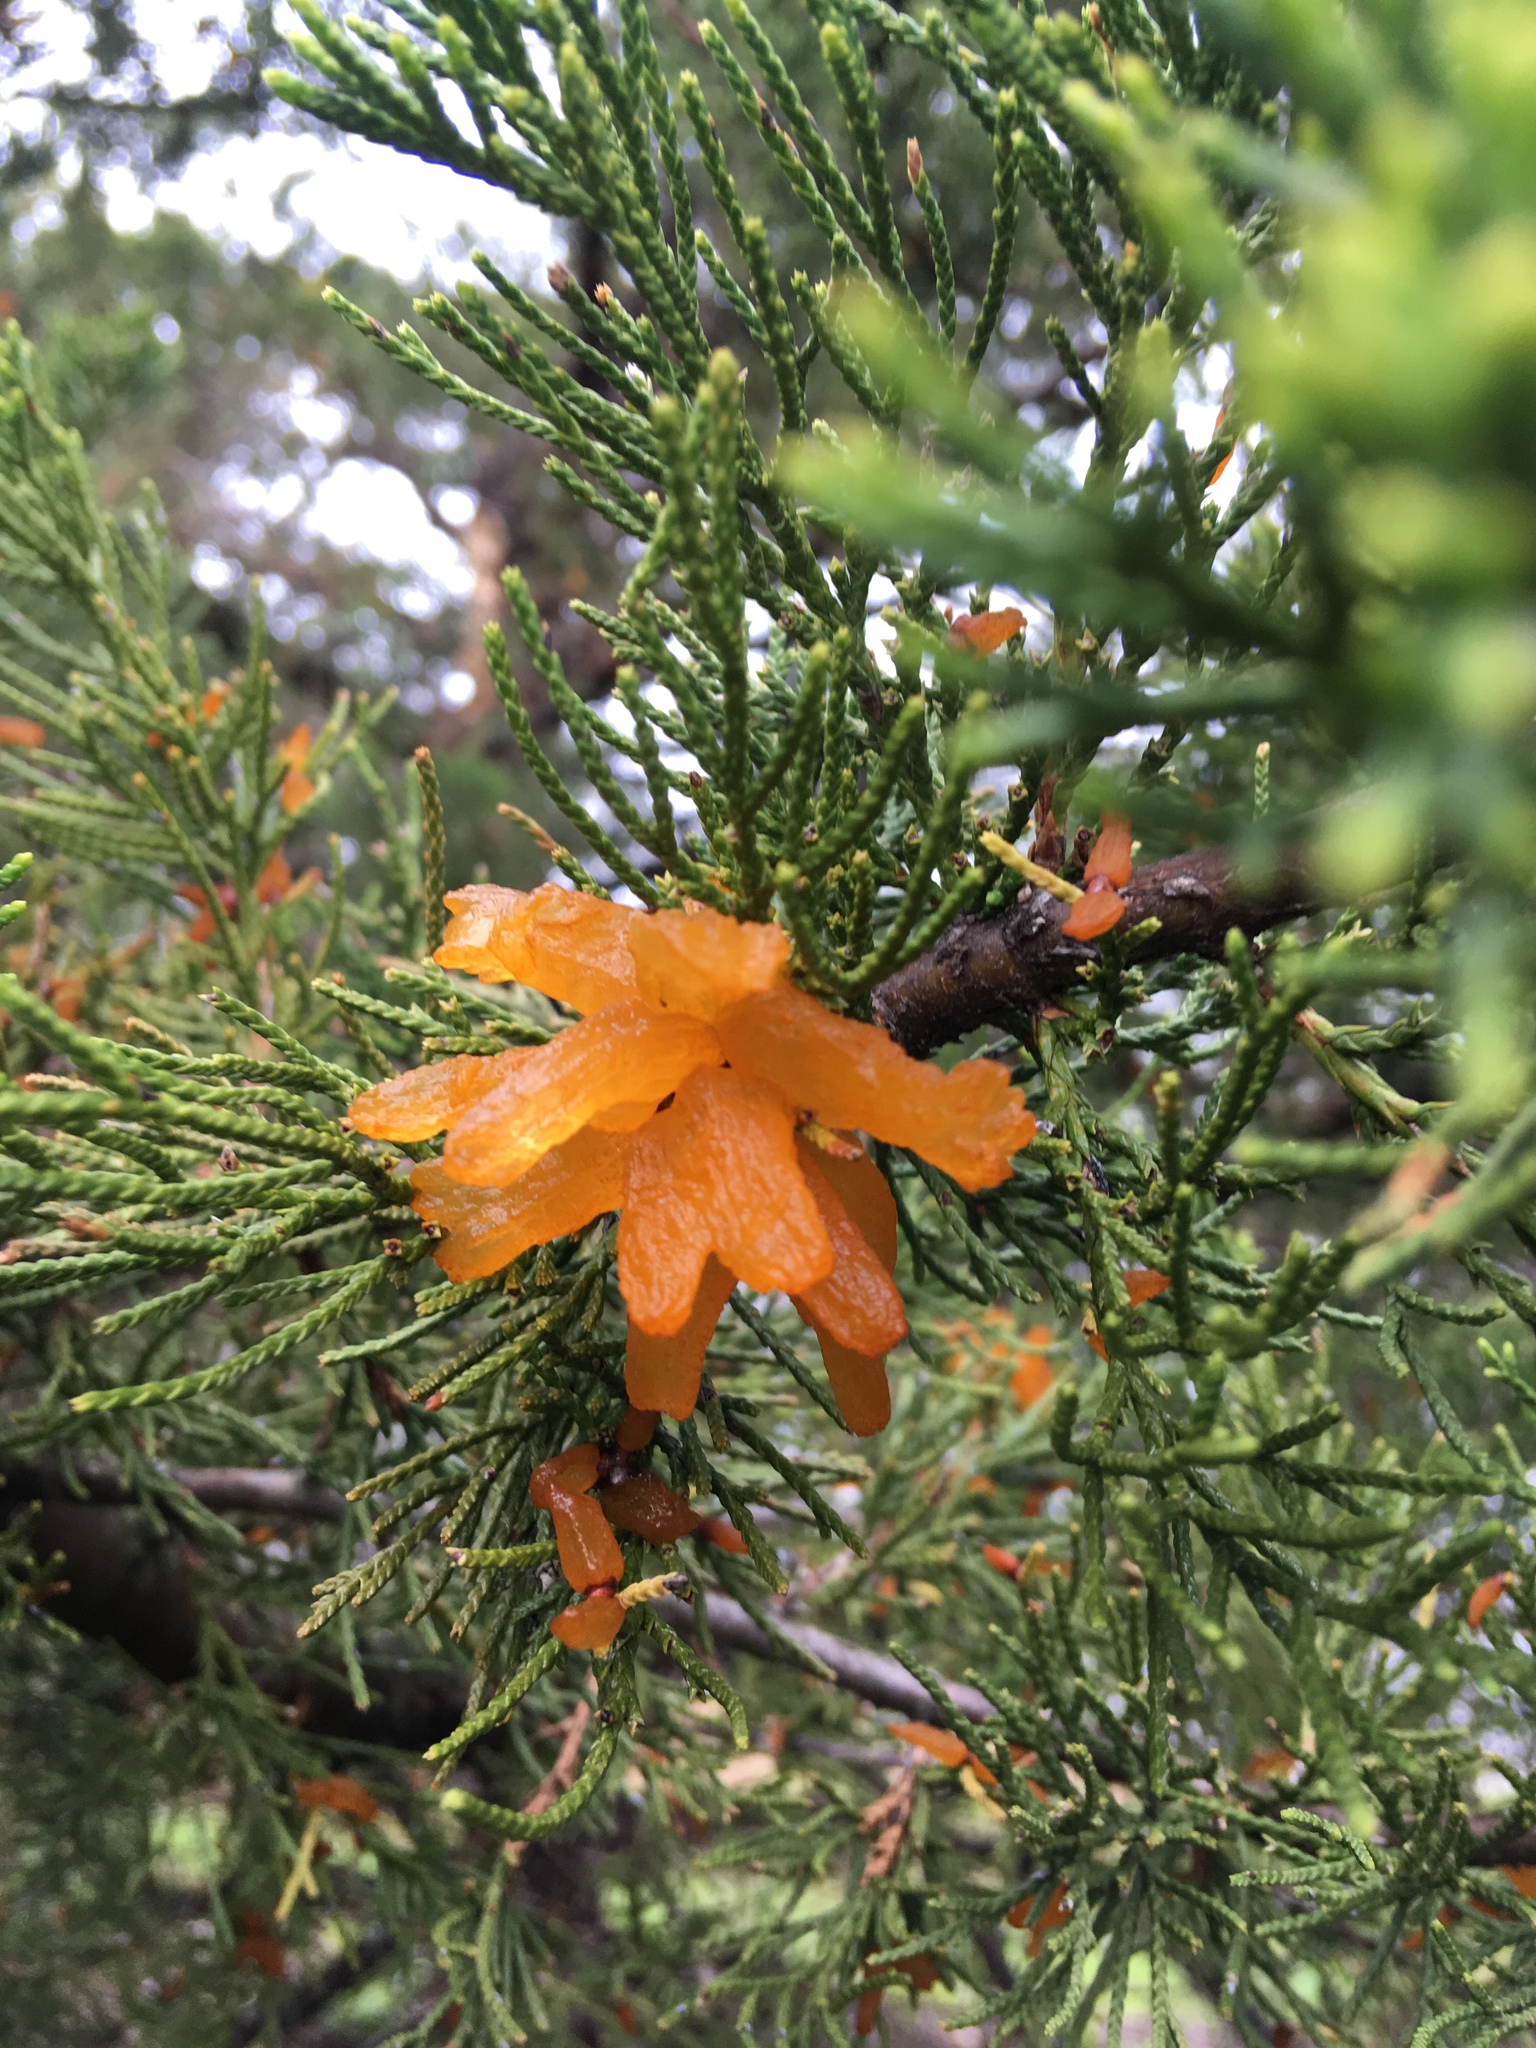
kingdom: Fungi
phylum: Basidiomycota
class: Pucciniomycetes
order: Pucciniales
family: Gymnosporangiaceae
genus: Gymnosporangium
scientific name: Gymnosporangium juniperi-virginianae
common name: Juniper-apple rust
